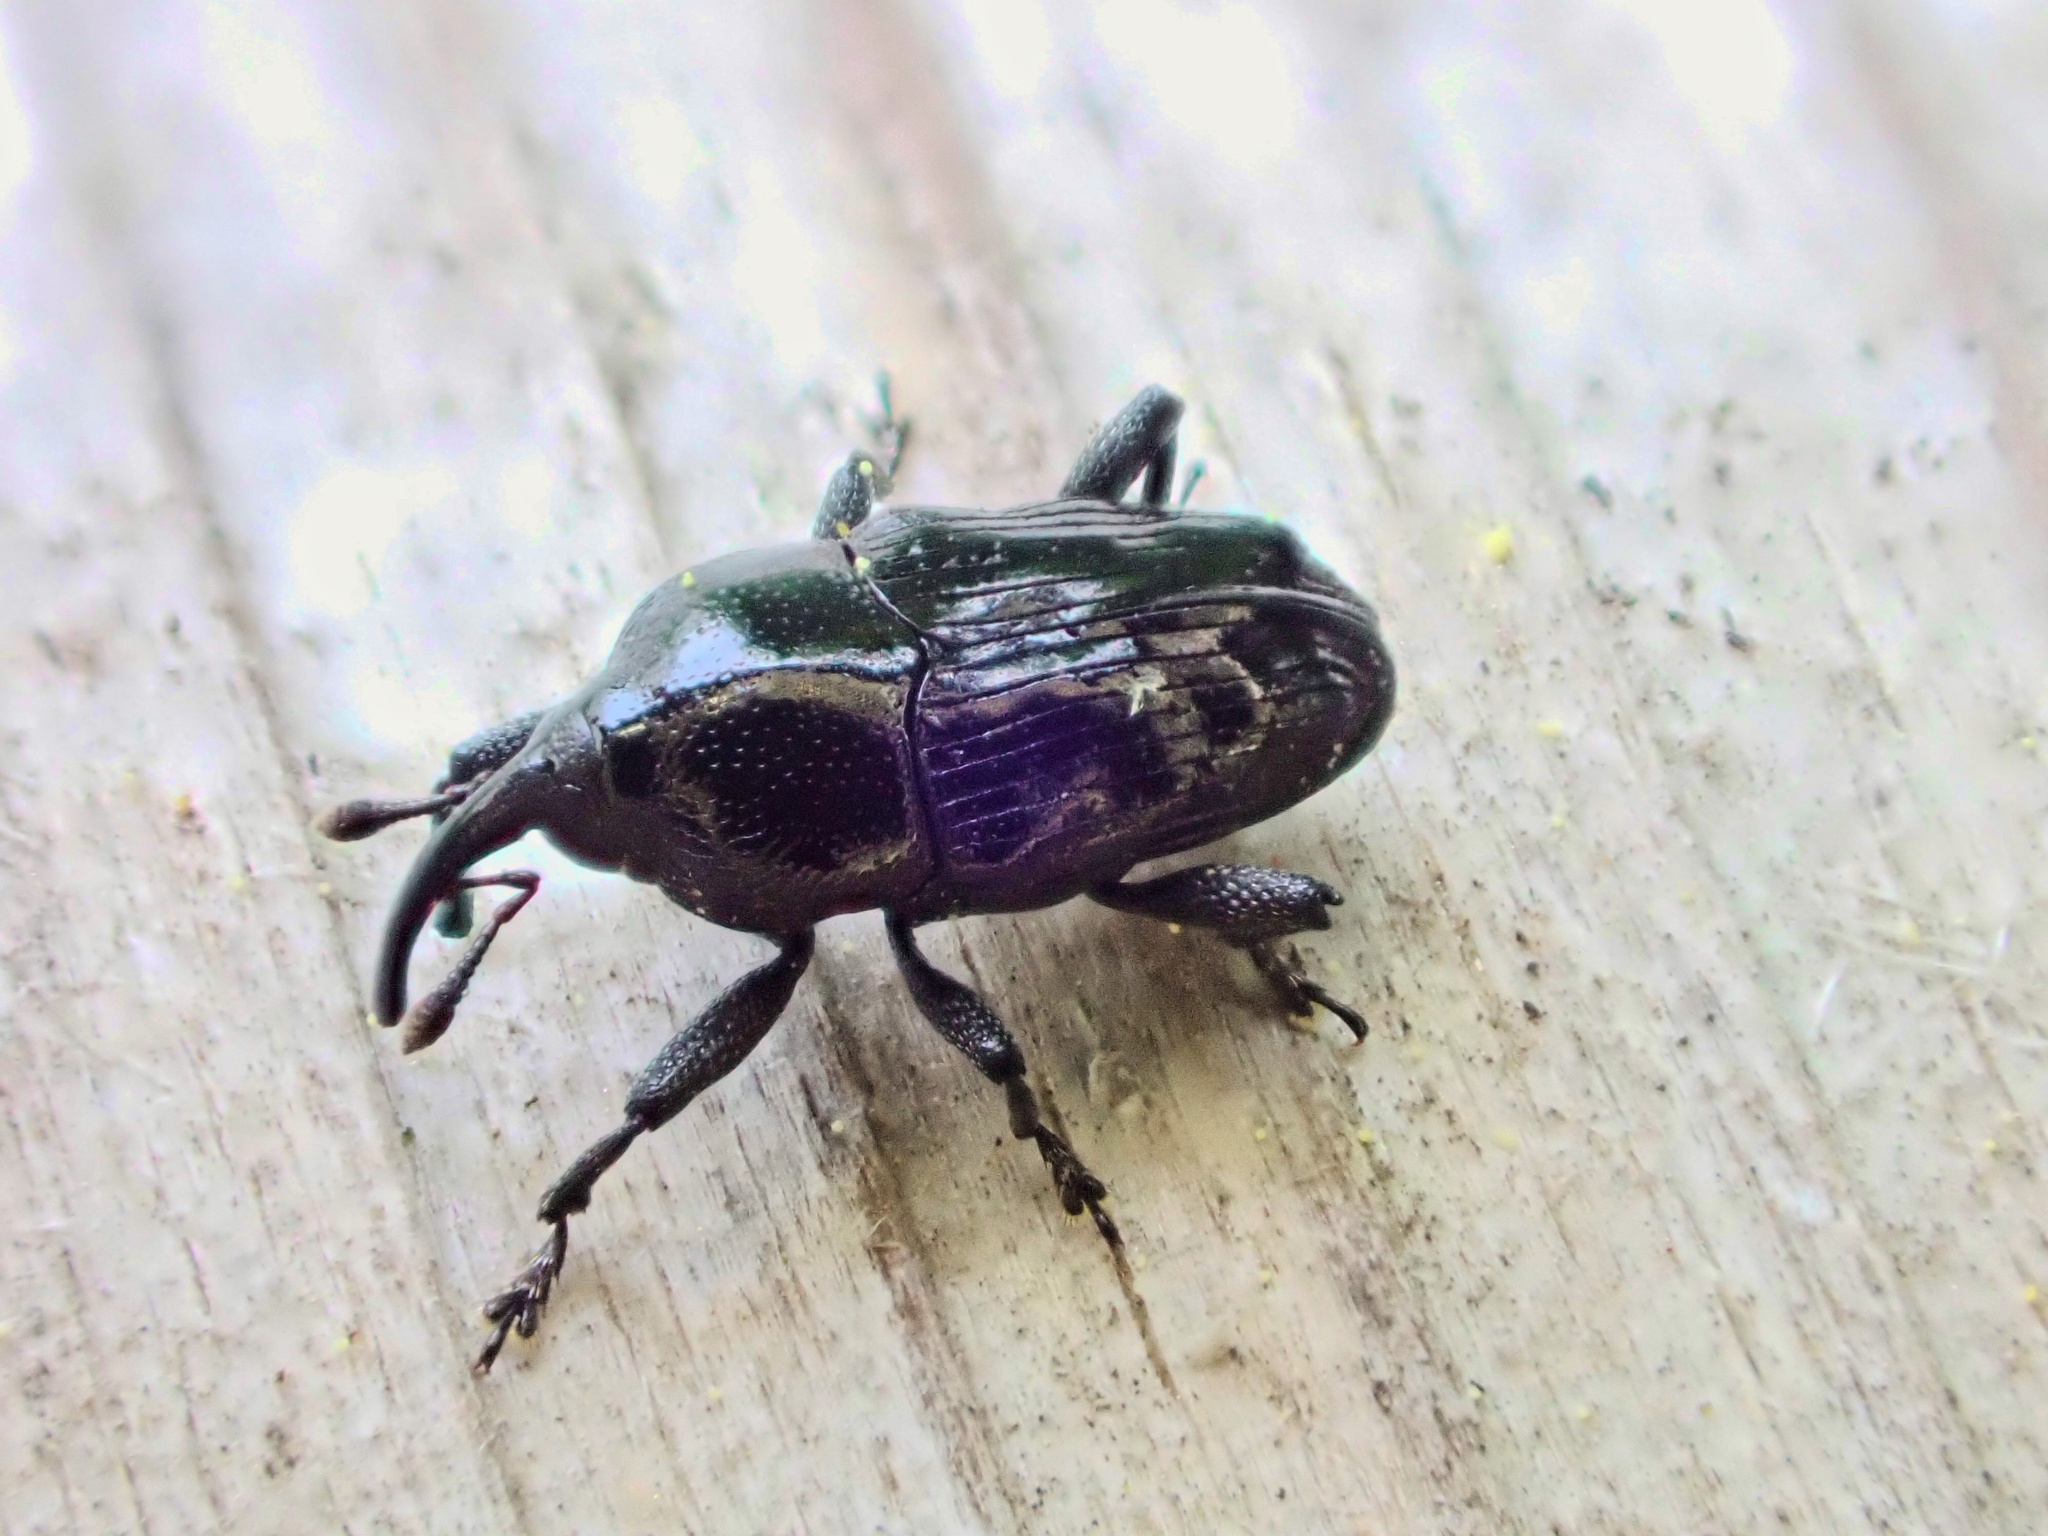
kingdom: Animalia
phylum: Arthropoda
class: Insecta
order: Coleoptera
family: Curculionidae
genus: Madarellus
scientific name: Madarellus undulatus
